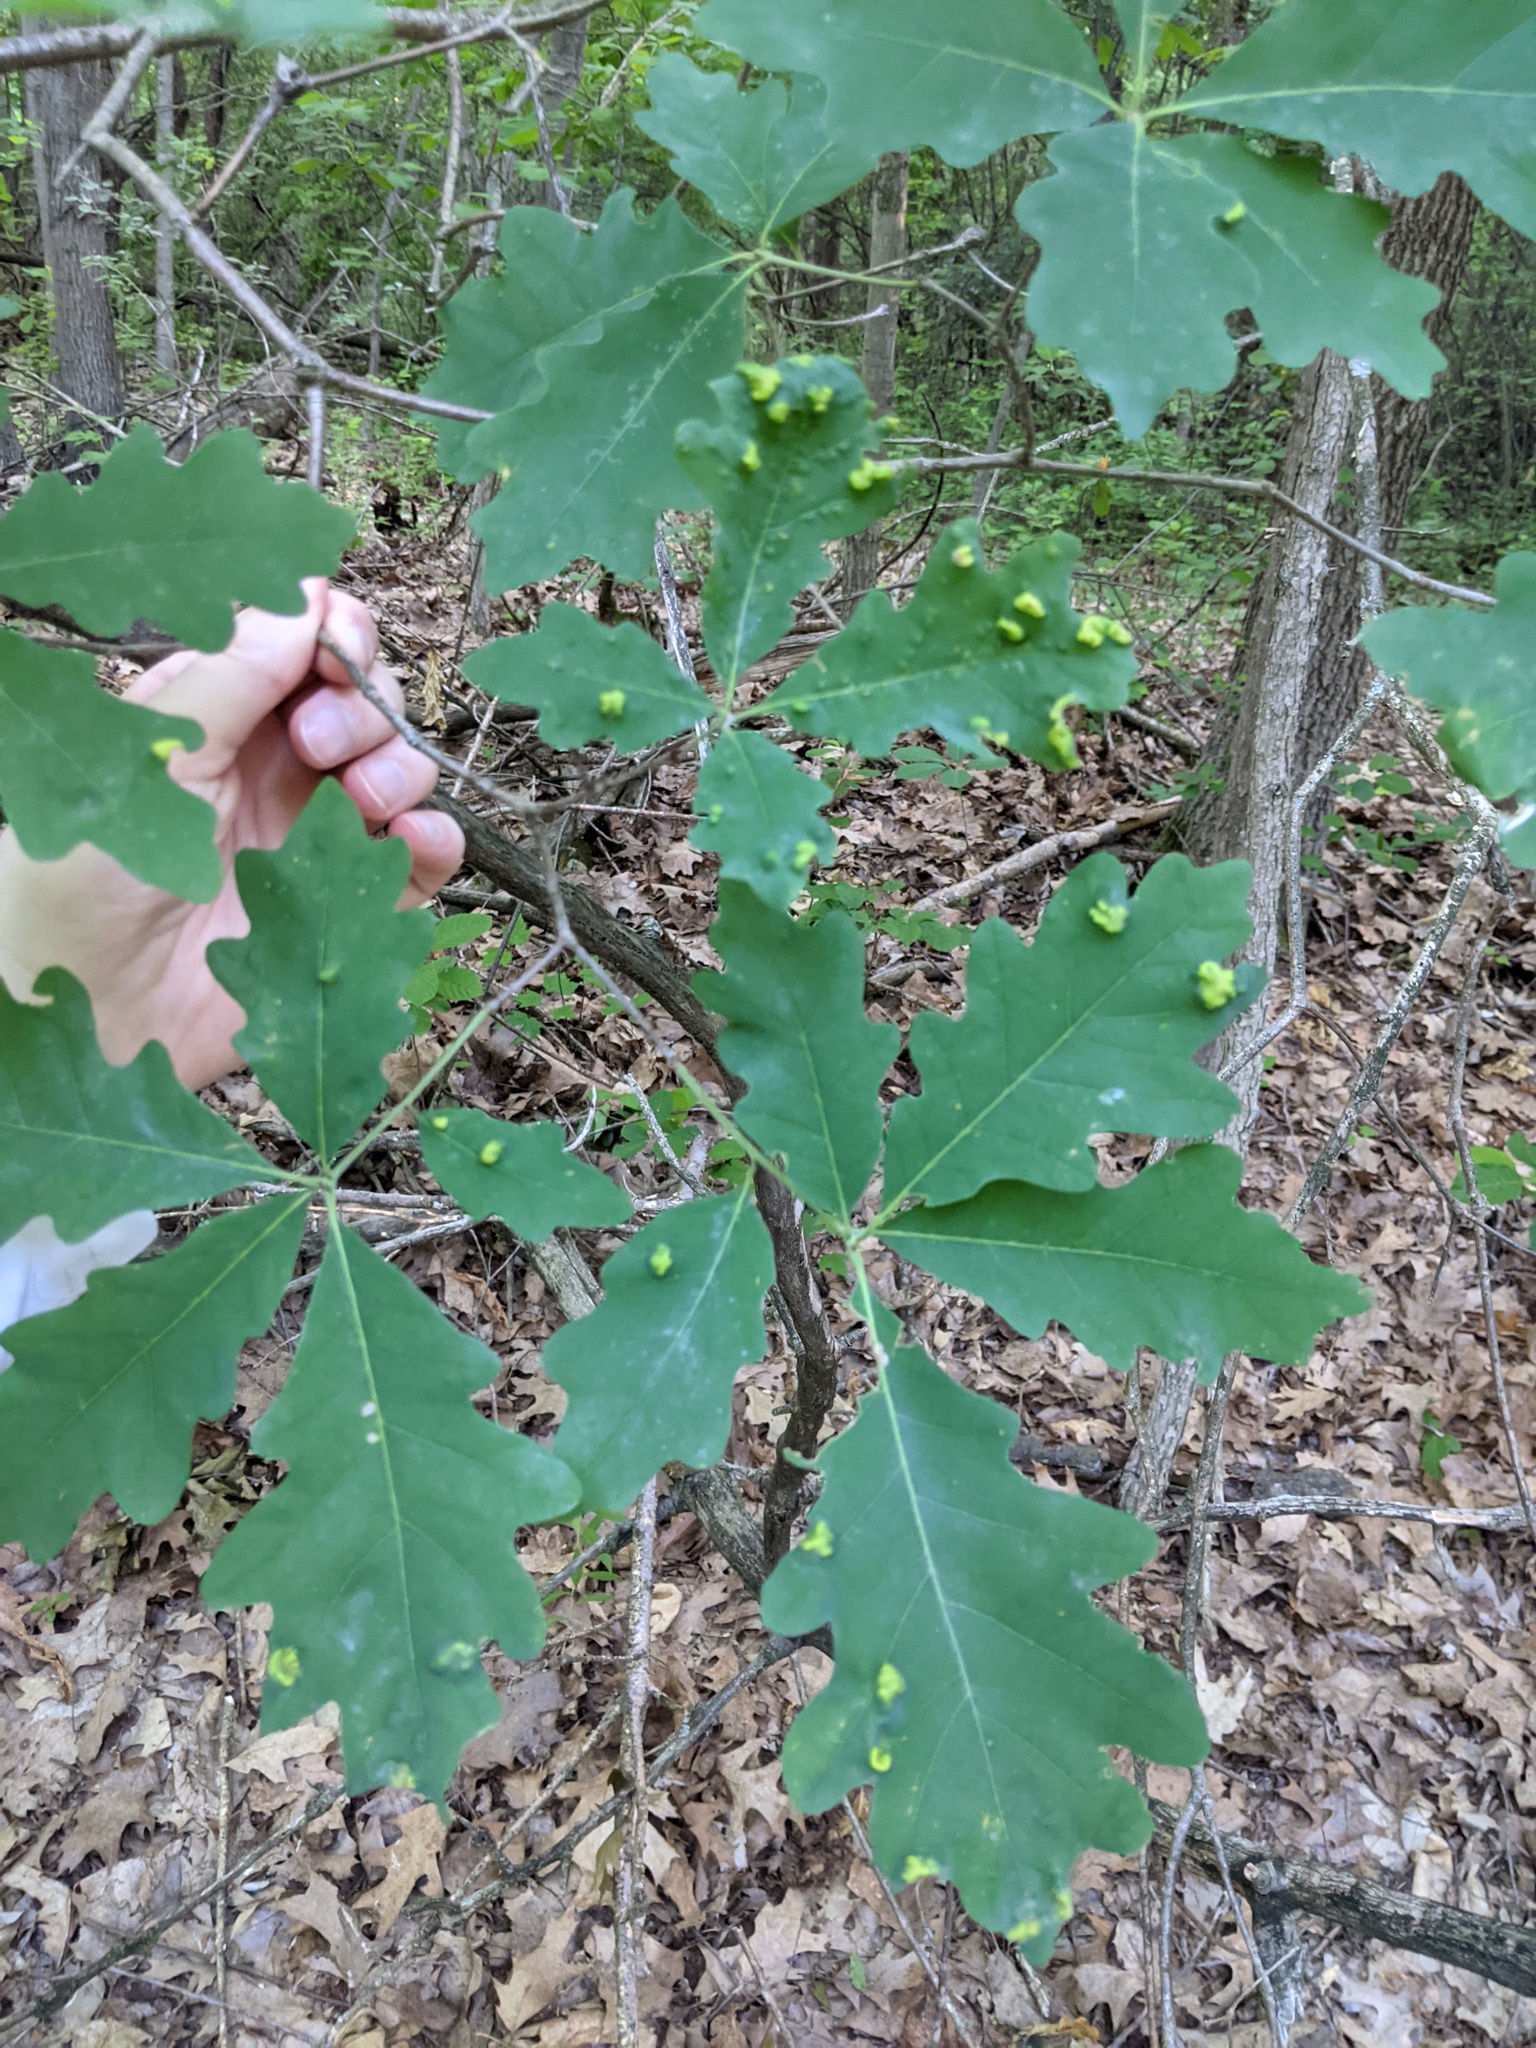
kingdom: Animalia
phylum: Arthropoda
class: Arachnida
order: Trombidiformes
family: Eriophyidae
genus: Aceria
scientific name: Aceria
